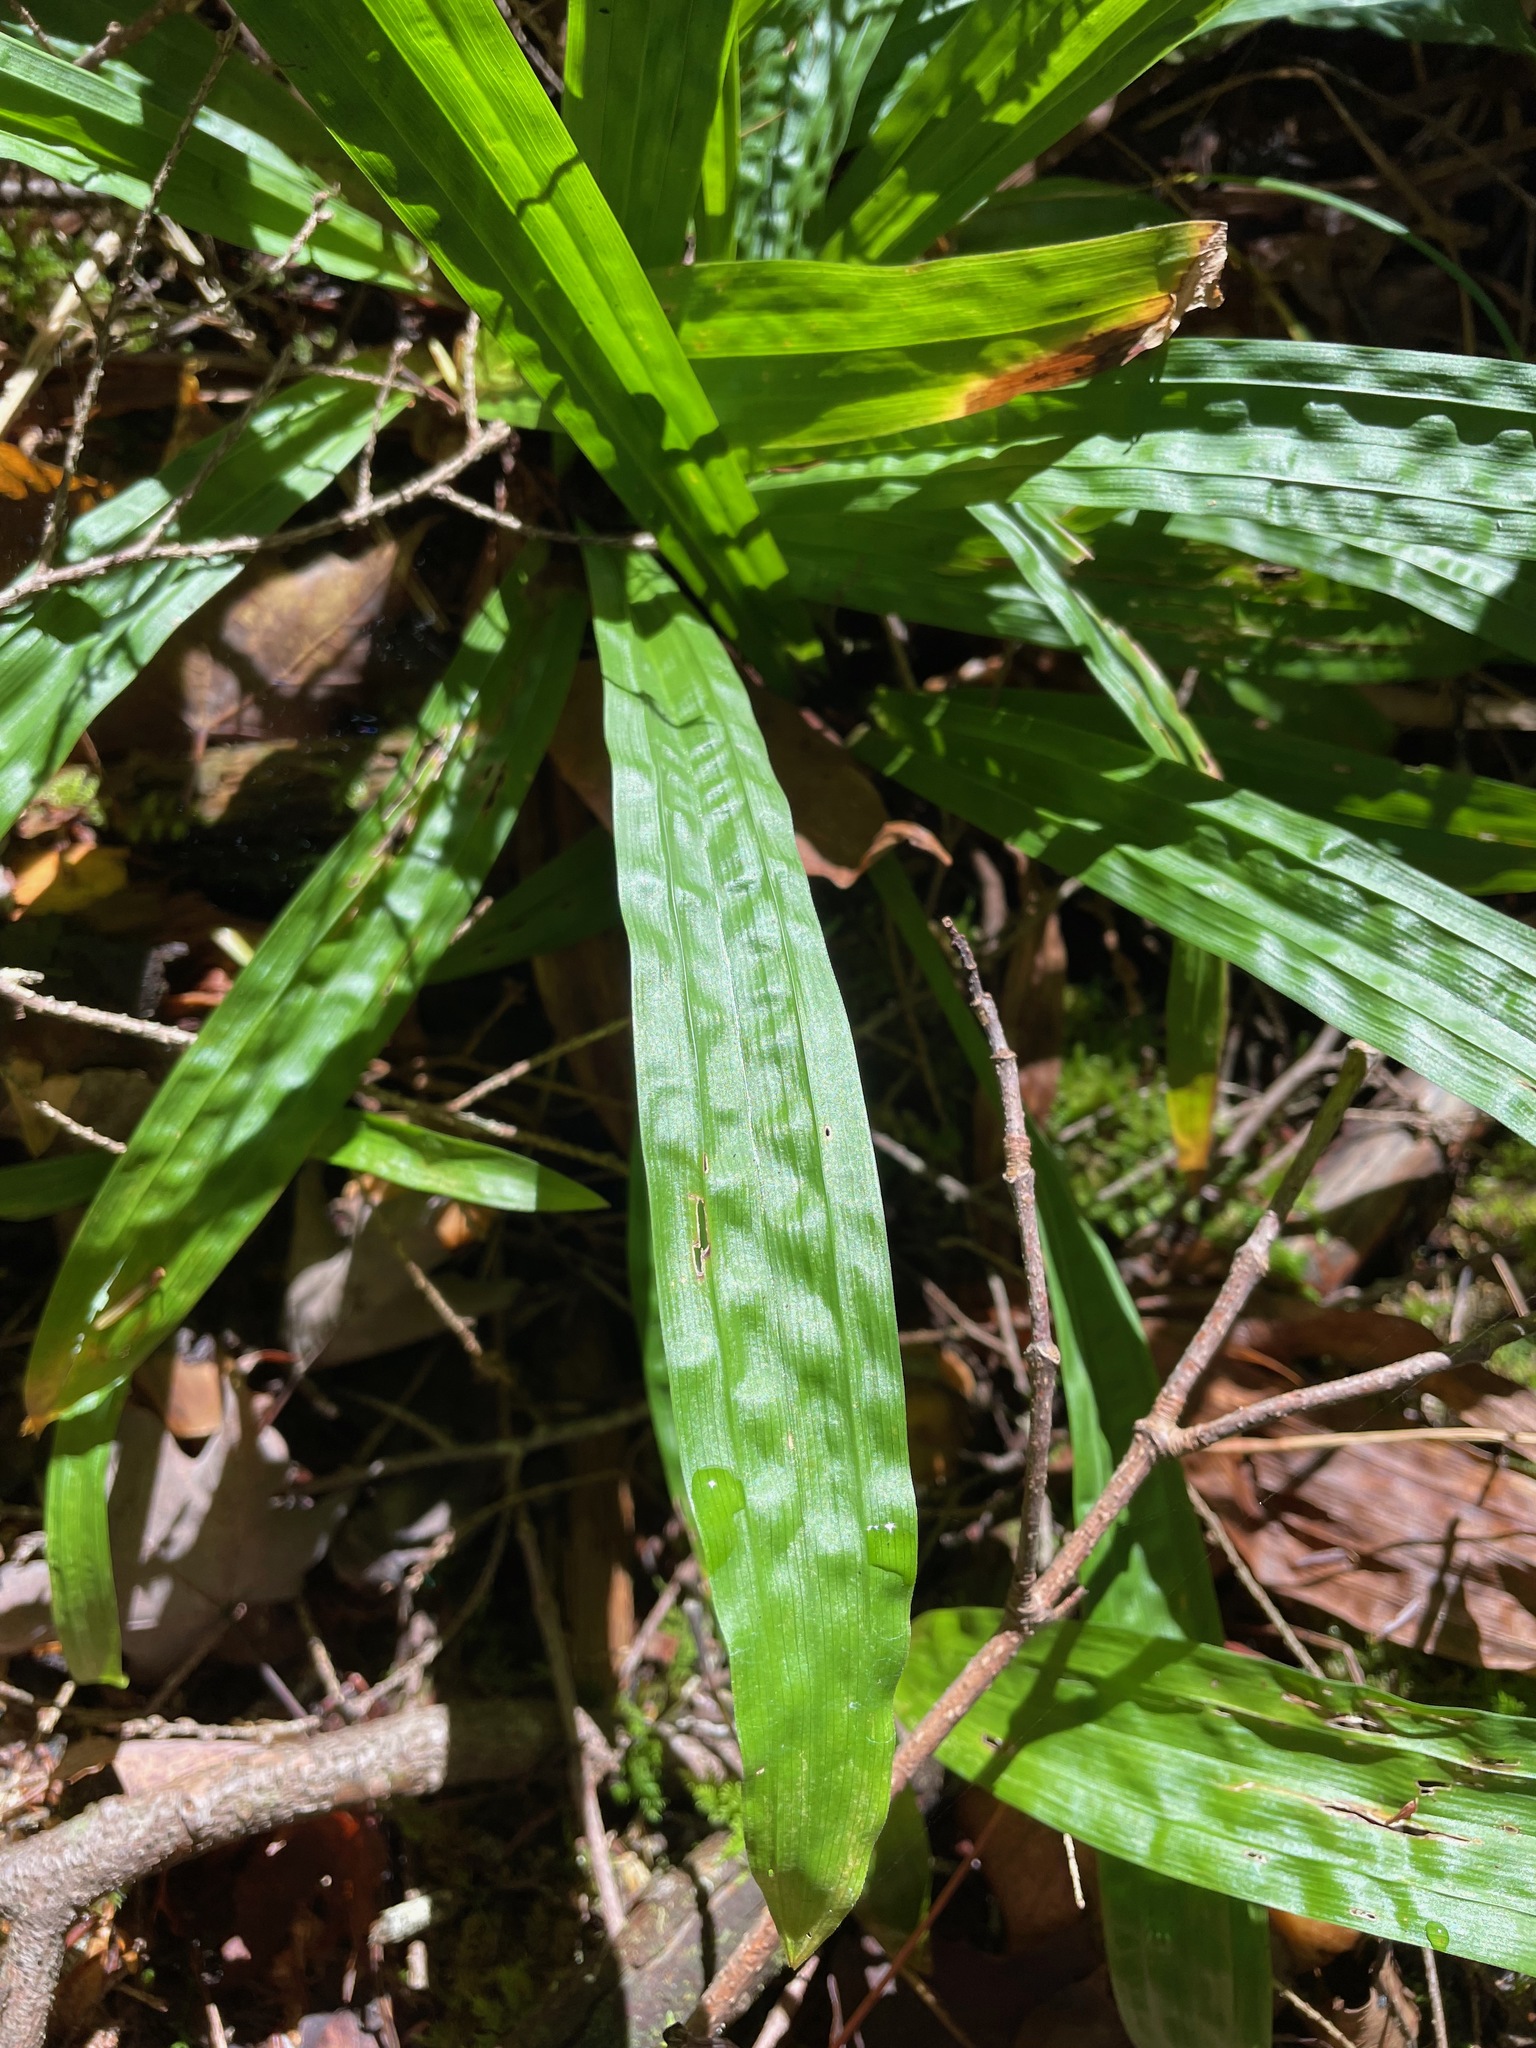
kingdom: Plantae
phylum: Tracheophyta
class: Liliopsida
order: Poales
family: Cyperaceae
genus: Carex
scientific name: Carex plantaginea
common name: Plantain-leaved sedge
